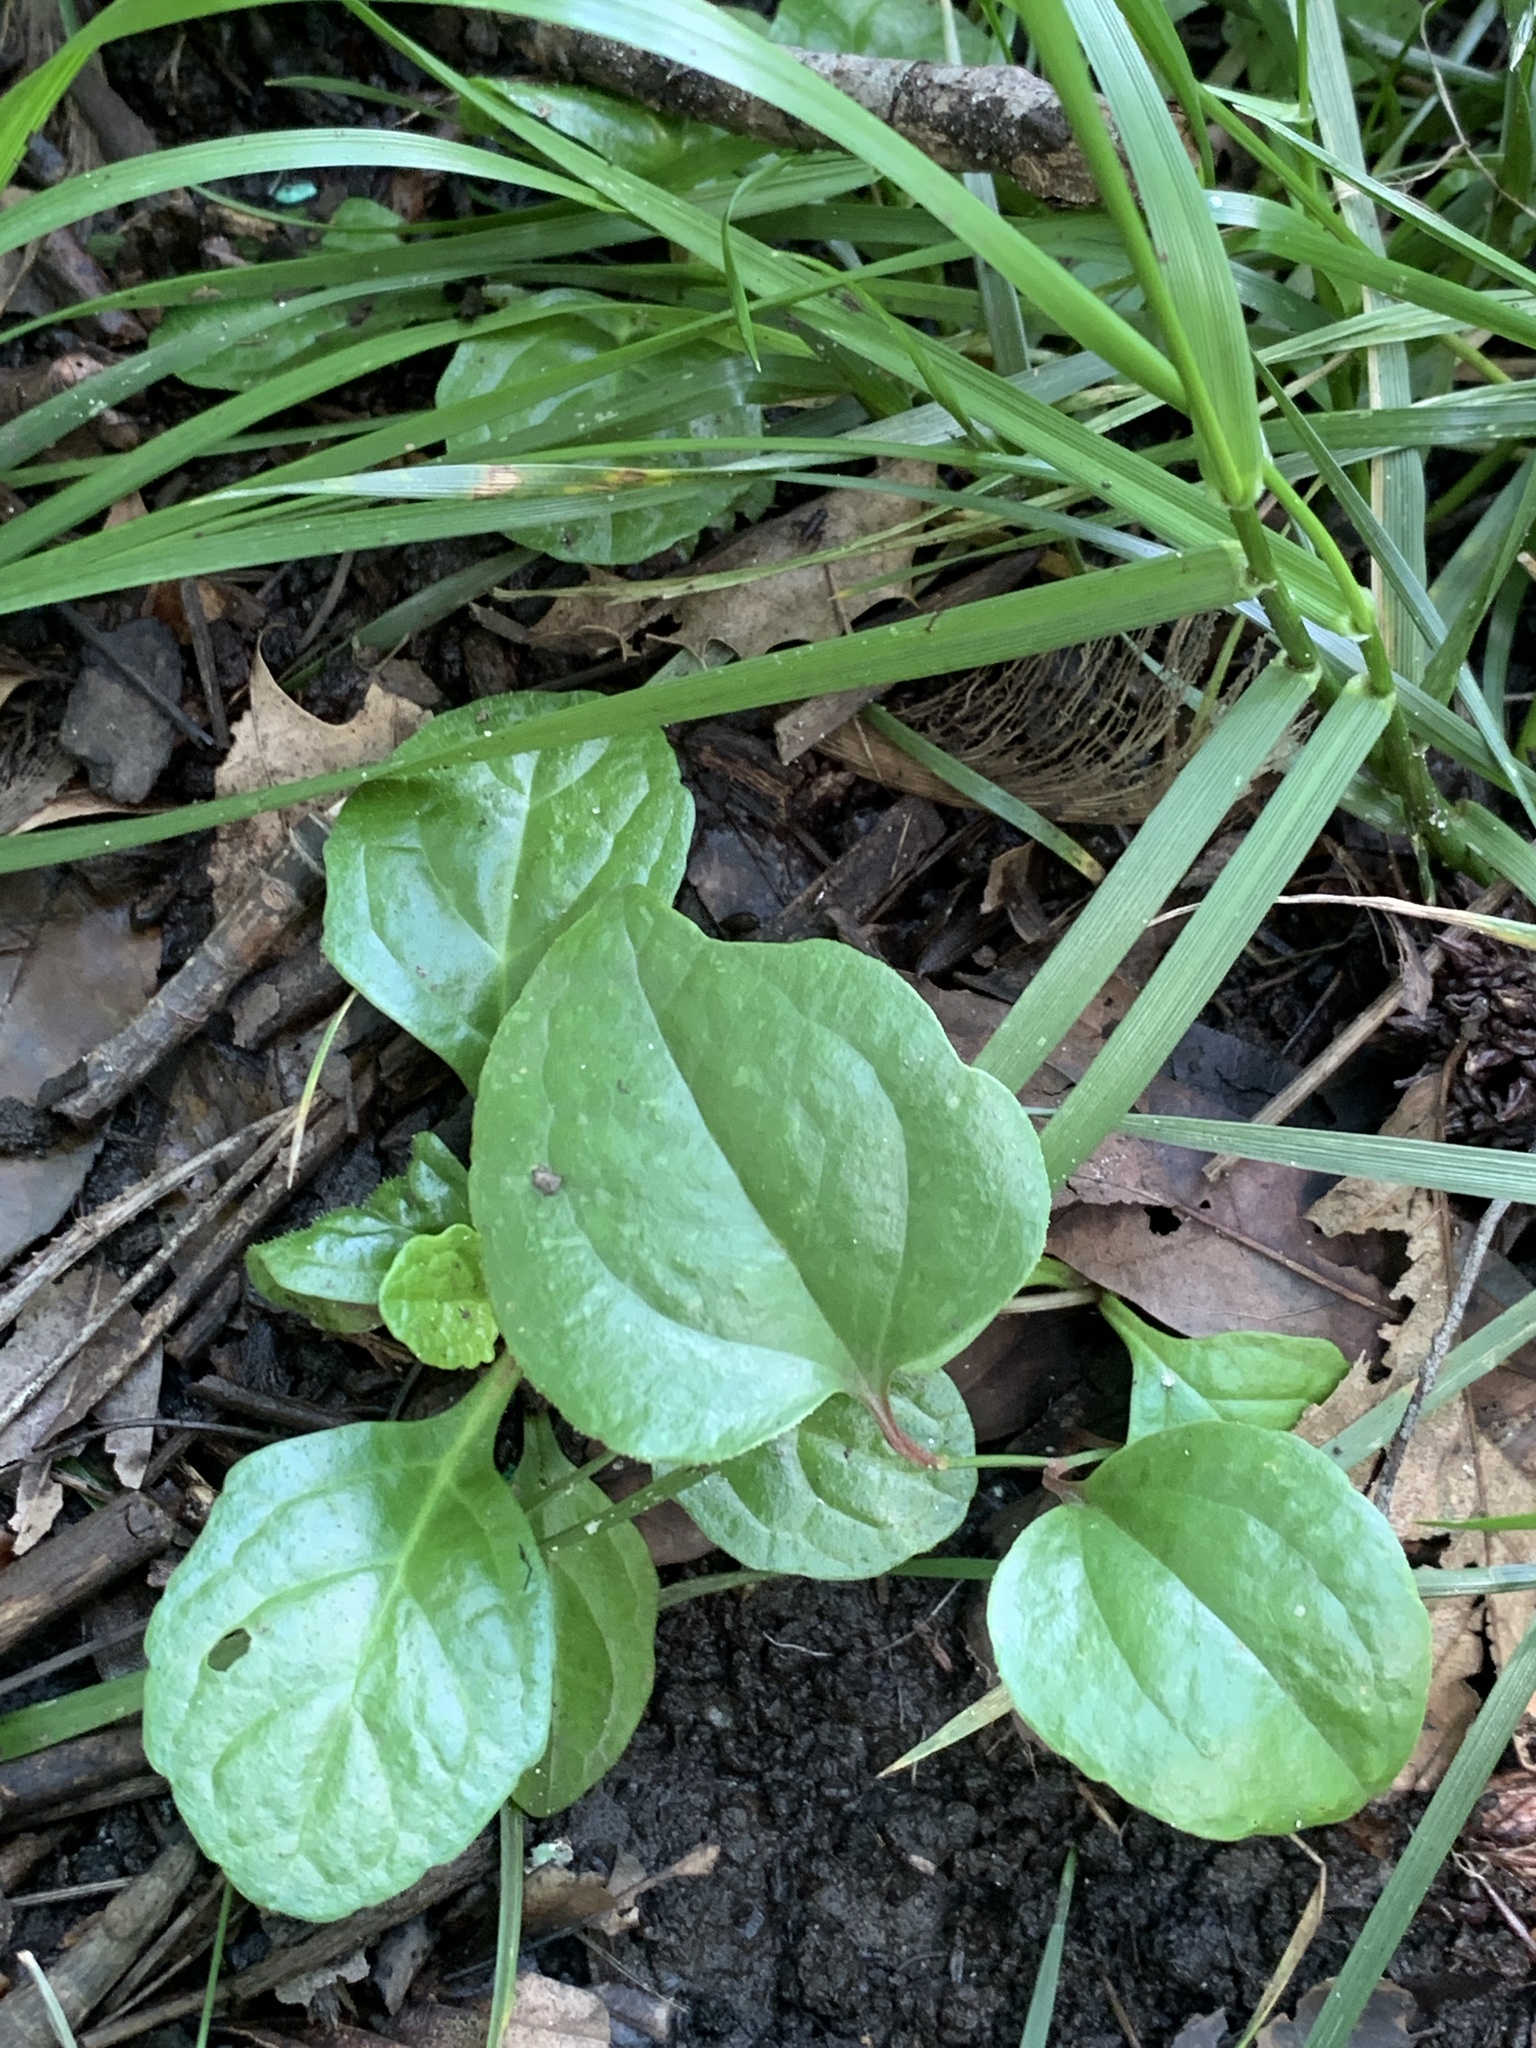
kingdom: Plantae
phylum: Tracheophyta
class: Liliopsida
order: Liliales
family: Smilacaceae
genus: Smilax
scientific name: Smilax rotundifolia
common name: Bullbriar
